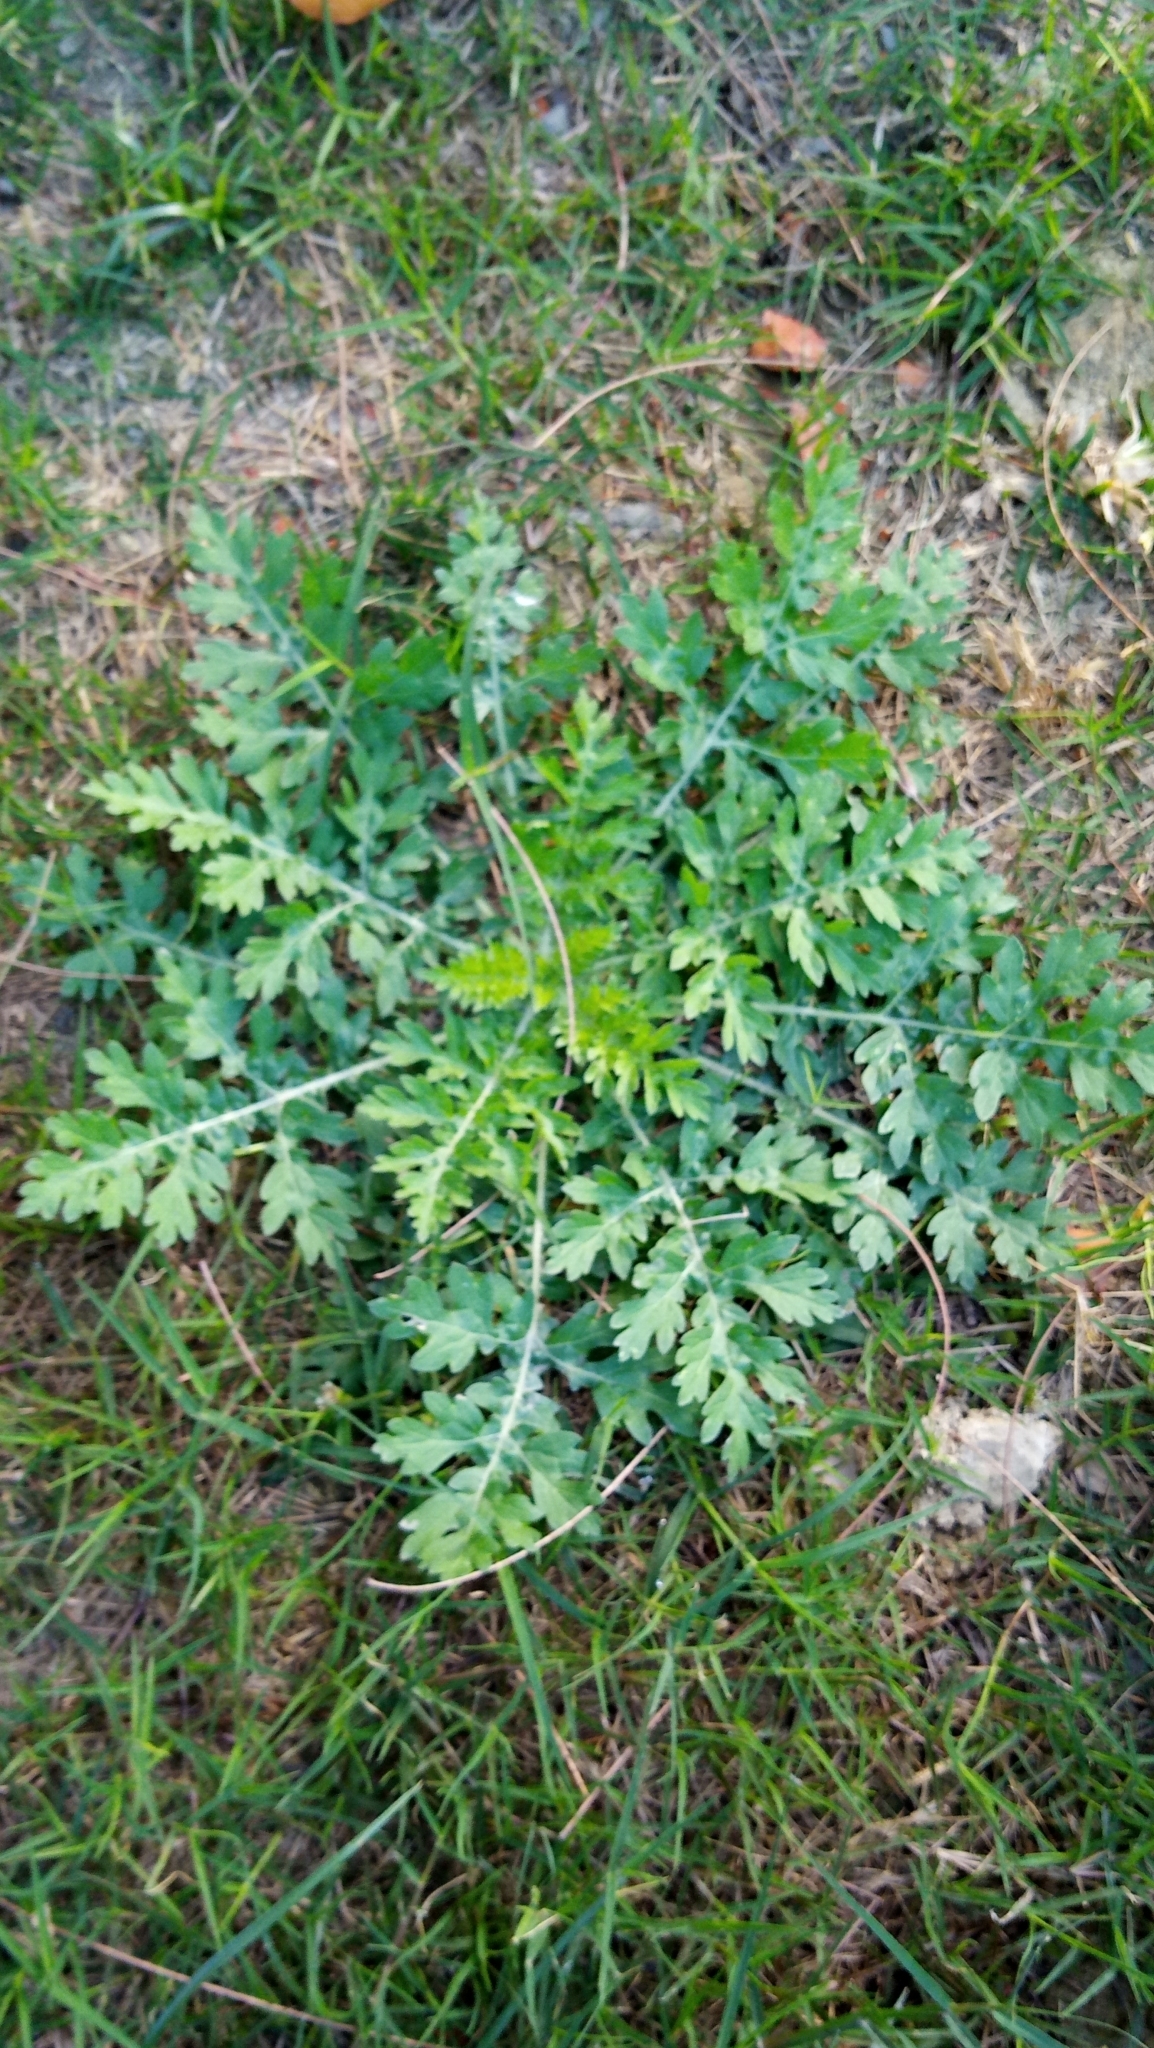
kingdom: Plantae
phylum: Tracheophyta
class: Magnoliopsida
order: Asterales
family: Asteraceae
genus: Parthenium
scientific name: Parthenium hysterophorus
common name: Santa maria feverfew
